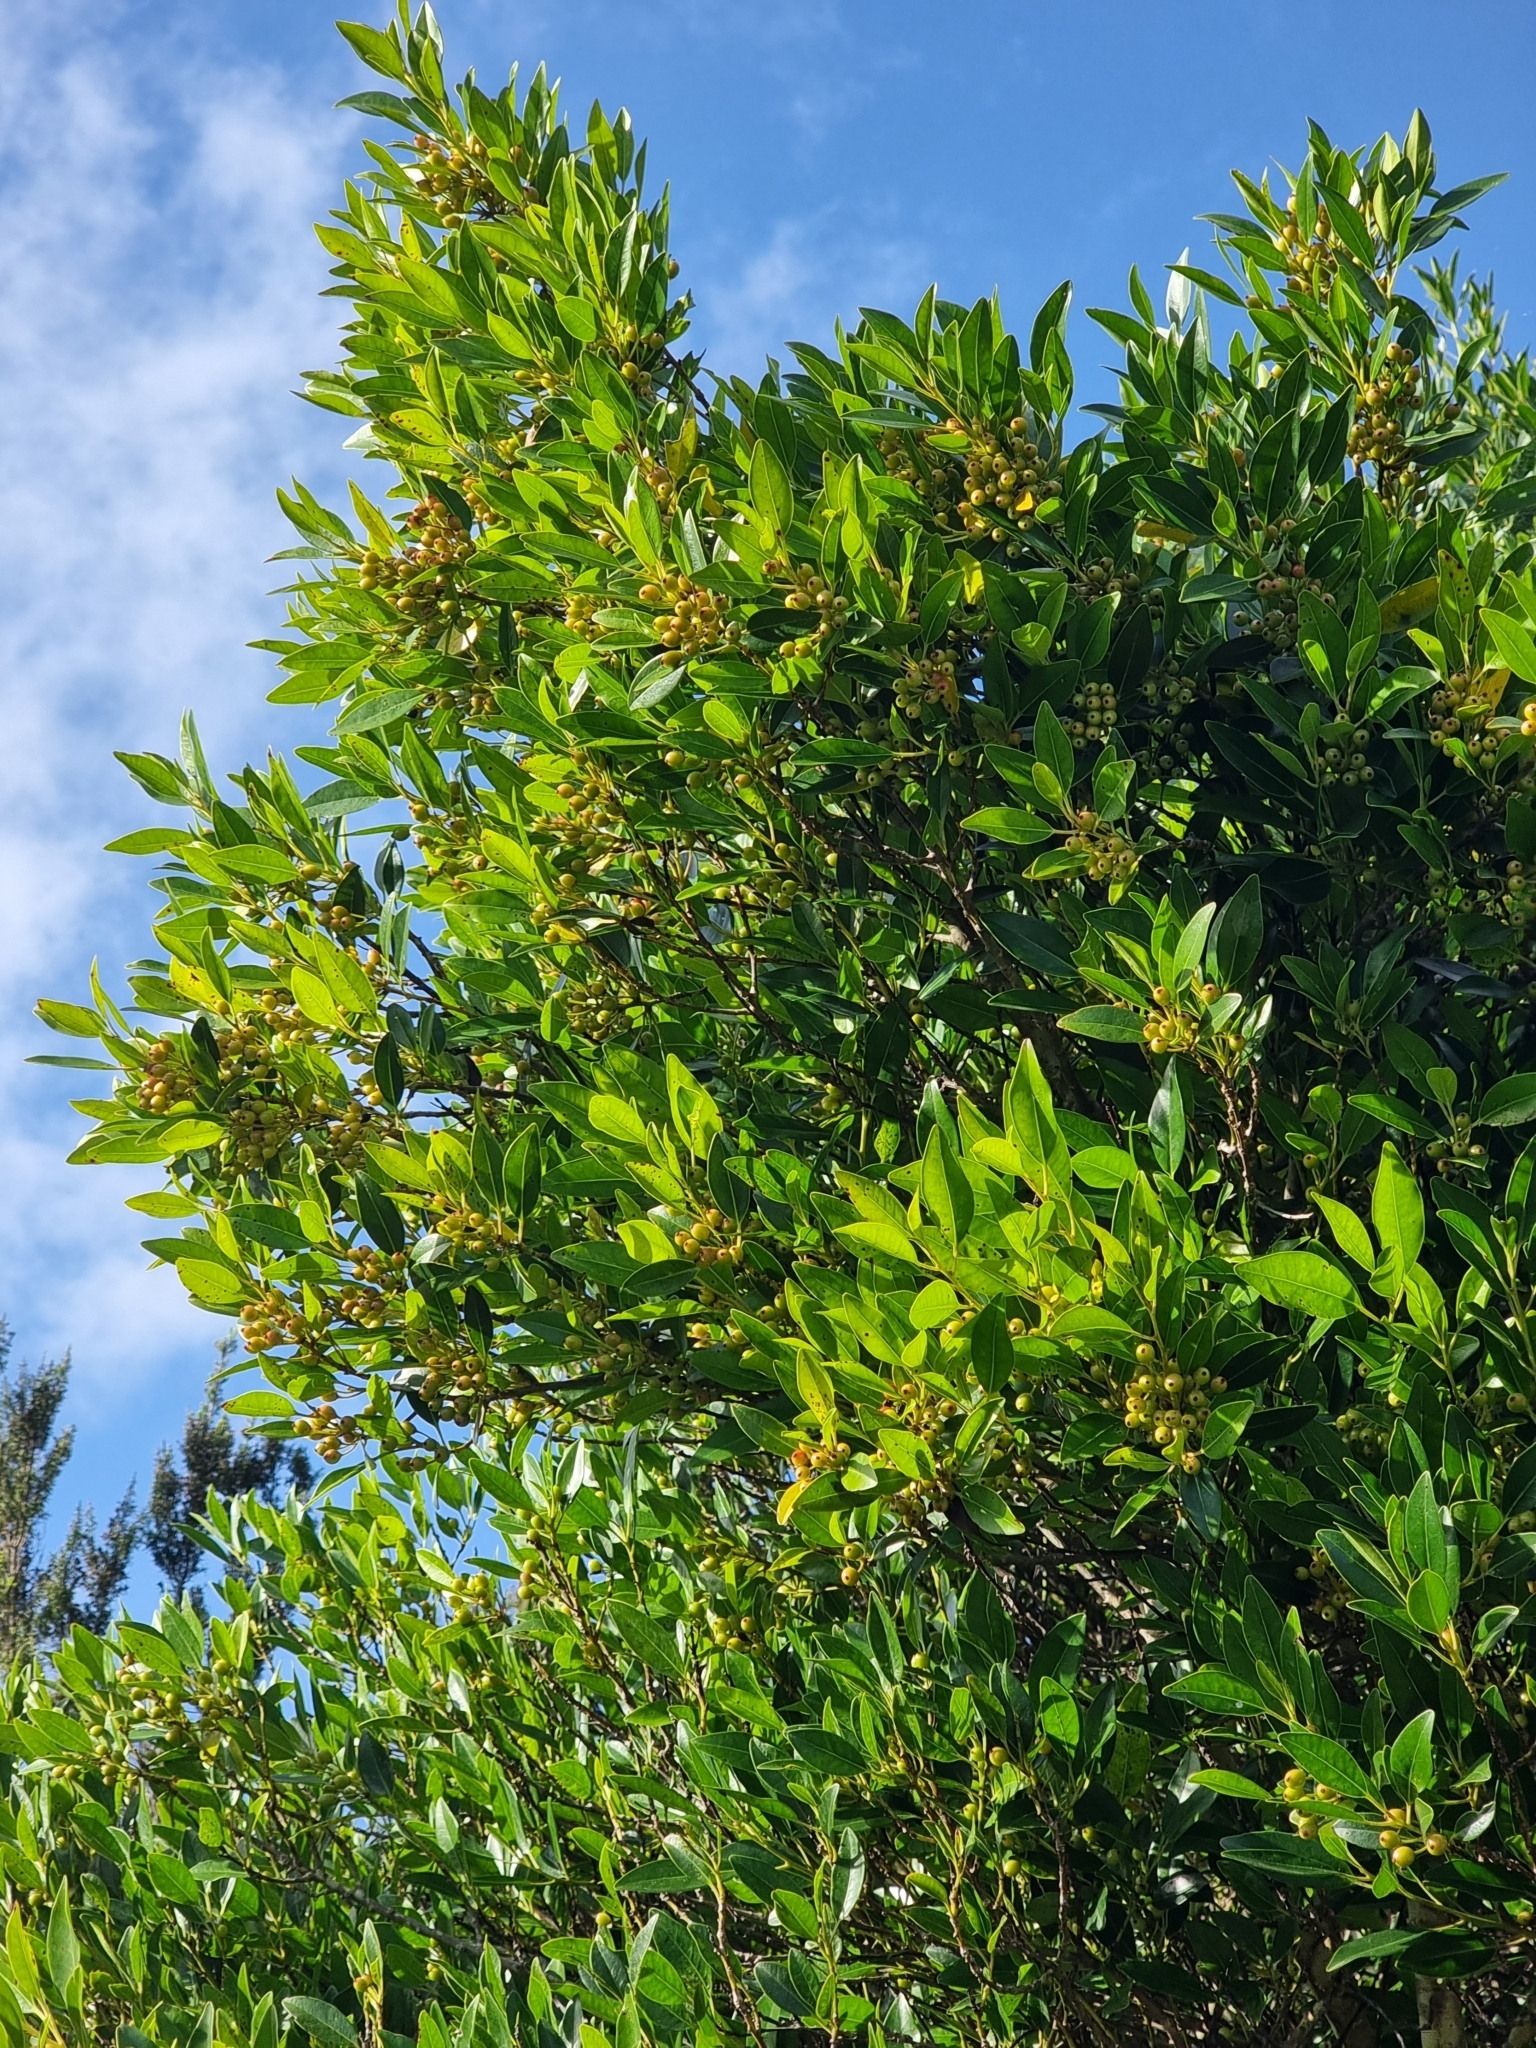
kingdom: Plantae
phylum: Tracheophyta
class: Magnoliopsida
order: Aquifoliales
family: Aquifoliaceae
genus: Ilex
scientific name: Ilex canariensis
